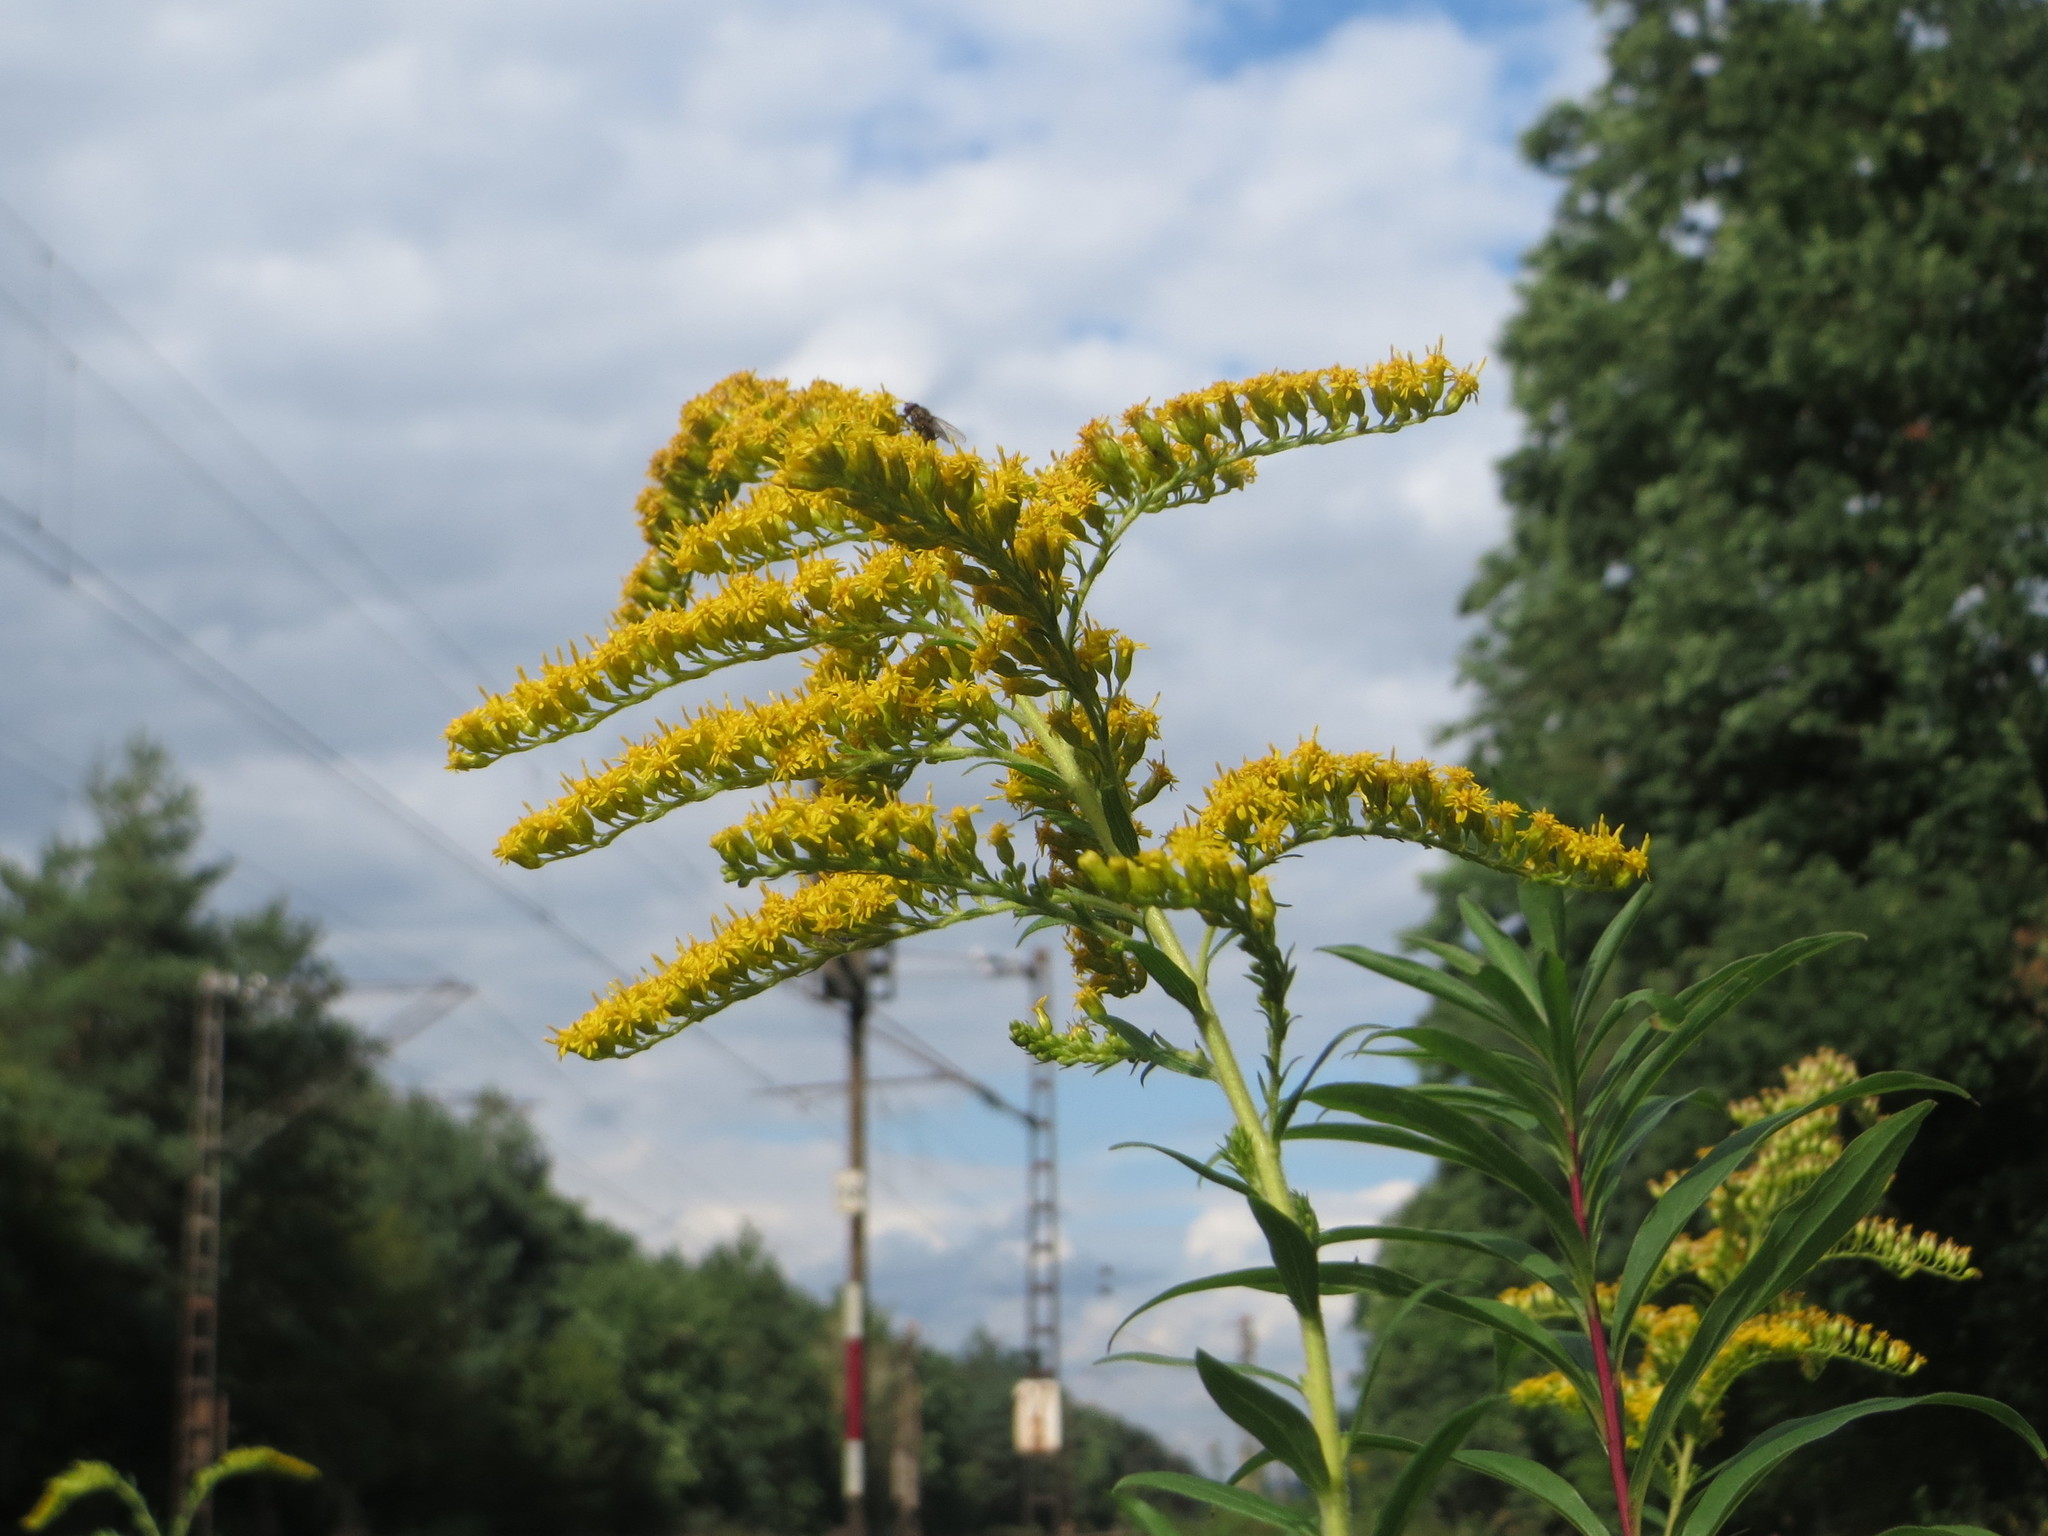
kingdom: Plantae
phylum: Tracheophyta
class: Magnoliopsida
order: Asterales
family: Asteraceae
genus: Solidago
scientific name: Solidago canadensis
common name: Canada goldenrod
